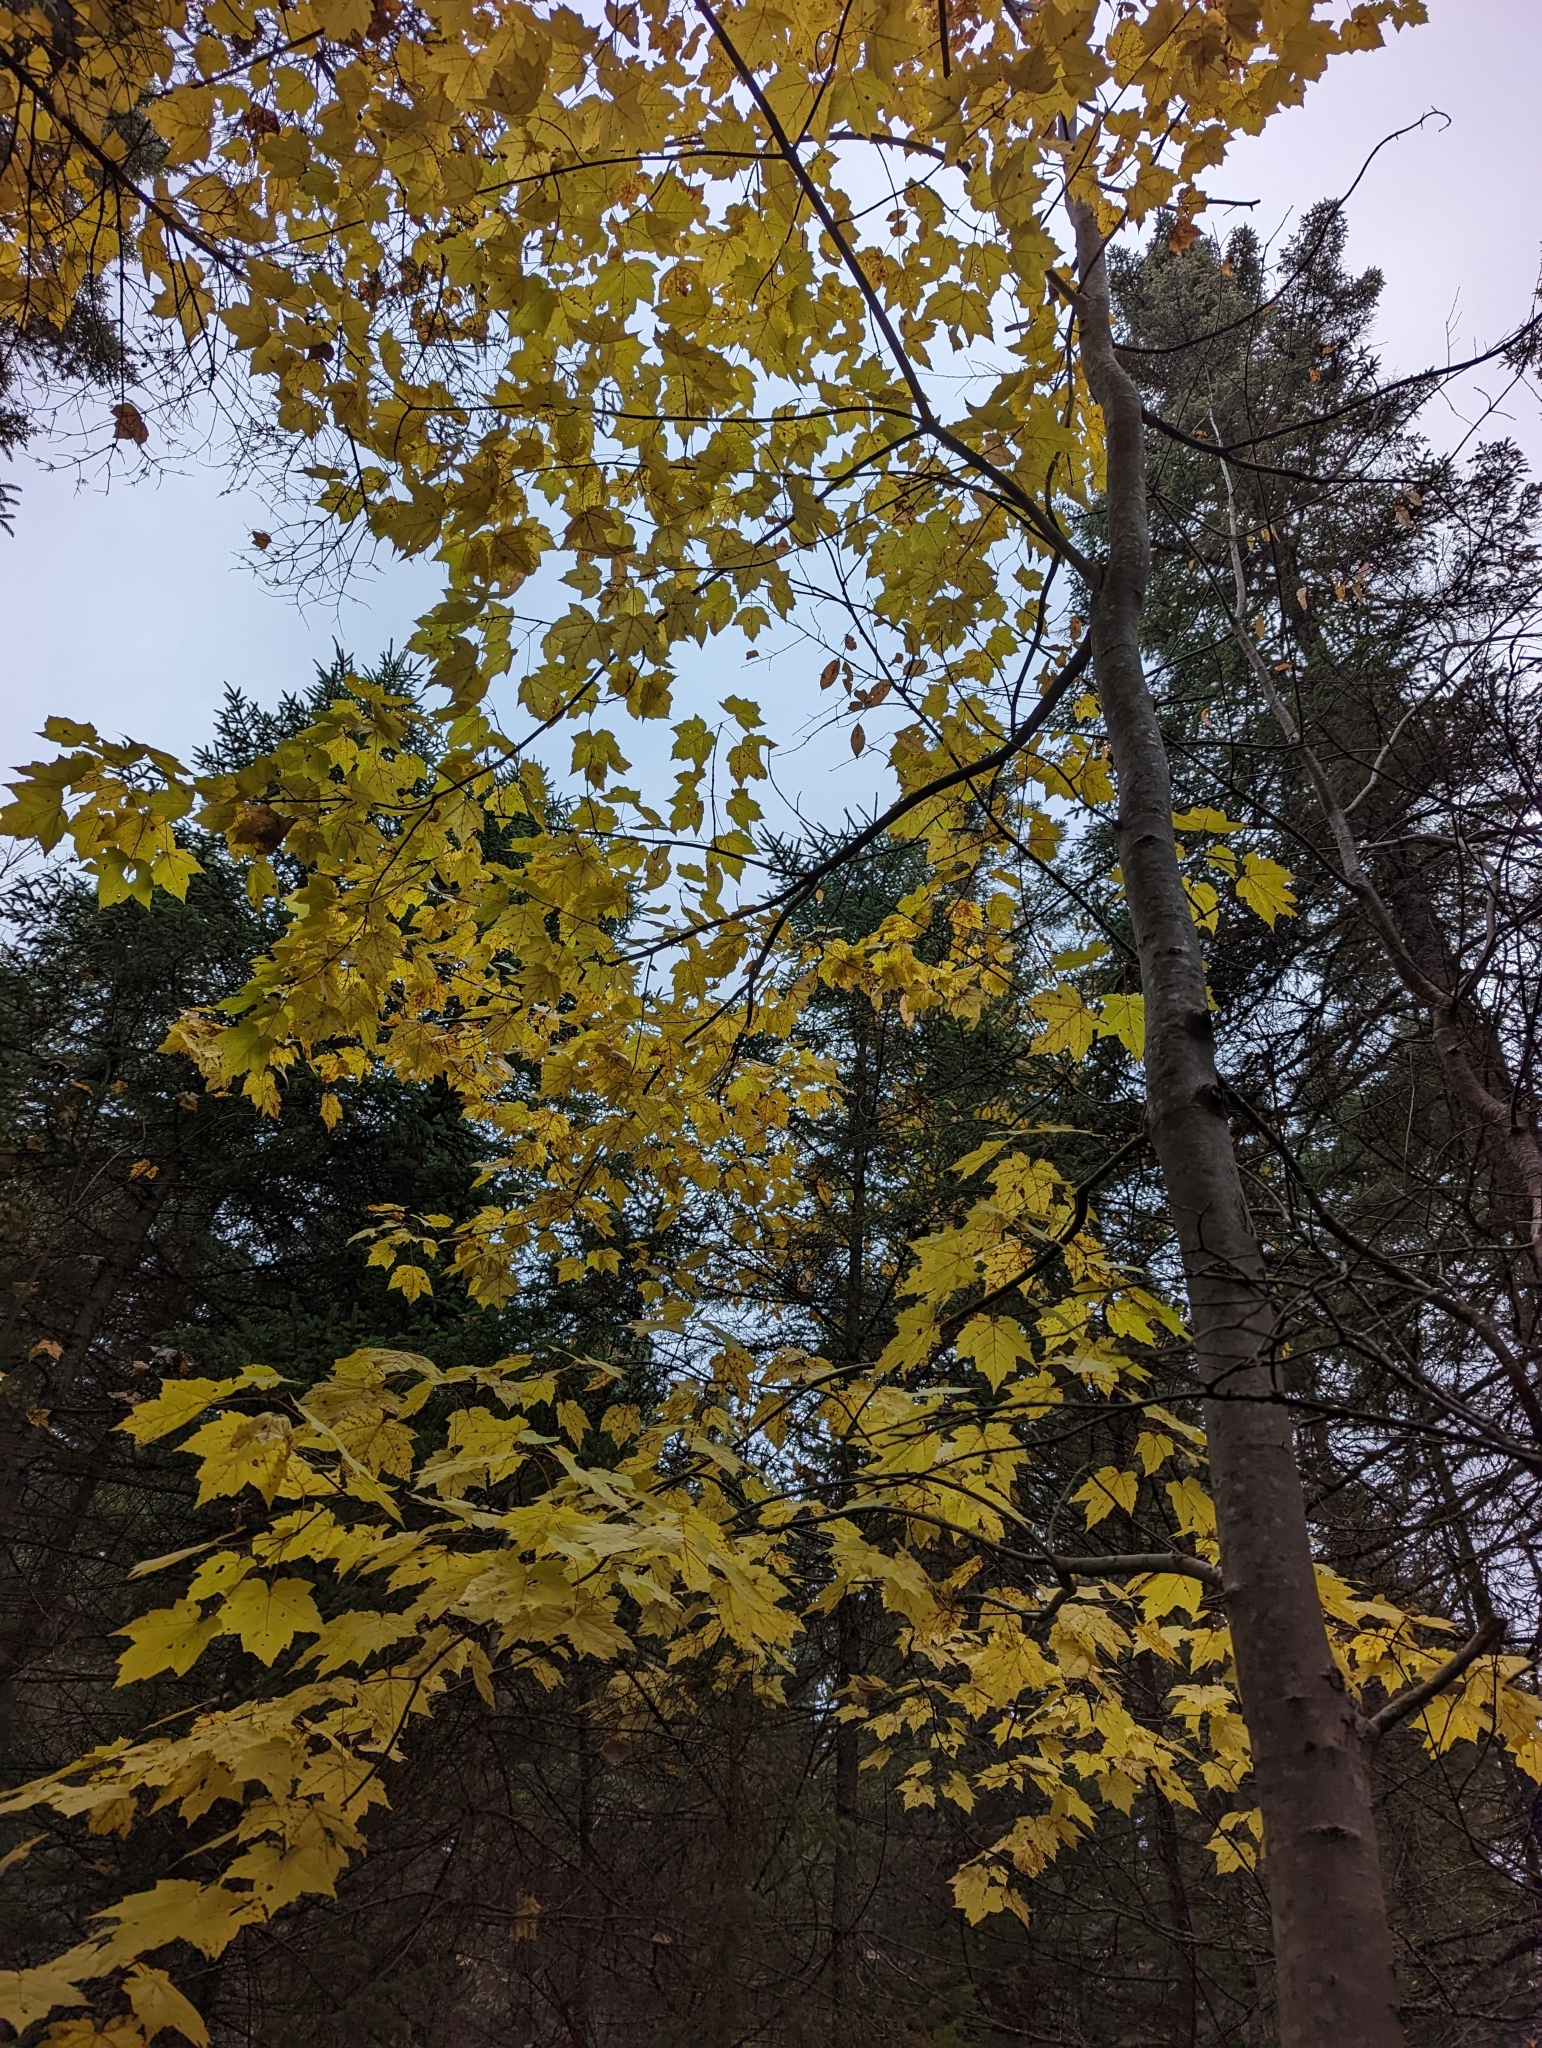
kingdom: Plantae
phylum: Tracheophyta
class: Magnoliopsida
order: Sapindales
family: Sapindaceae
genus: Acer
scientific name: Acer rubrum
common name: Red maple
